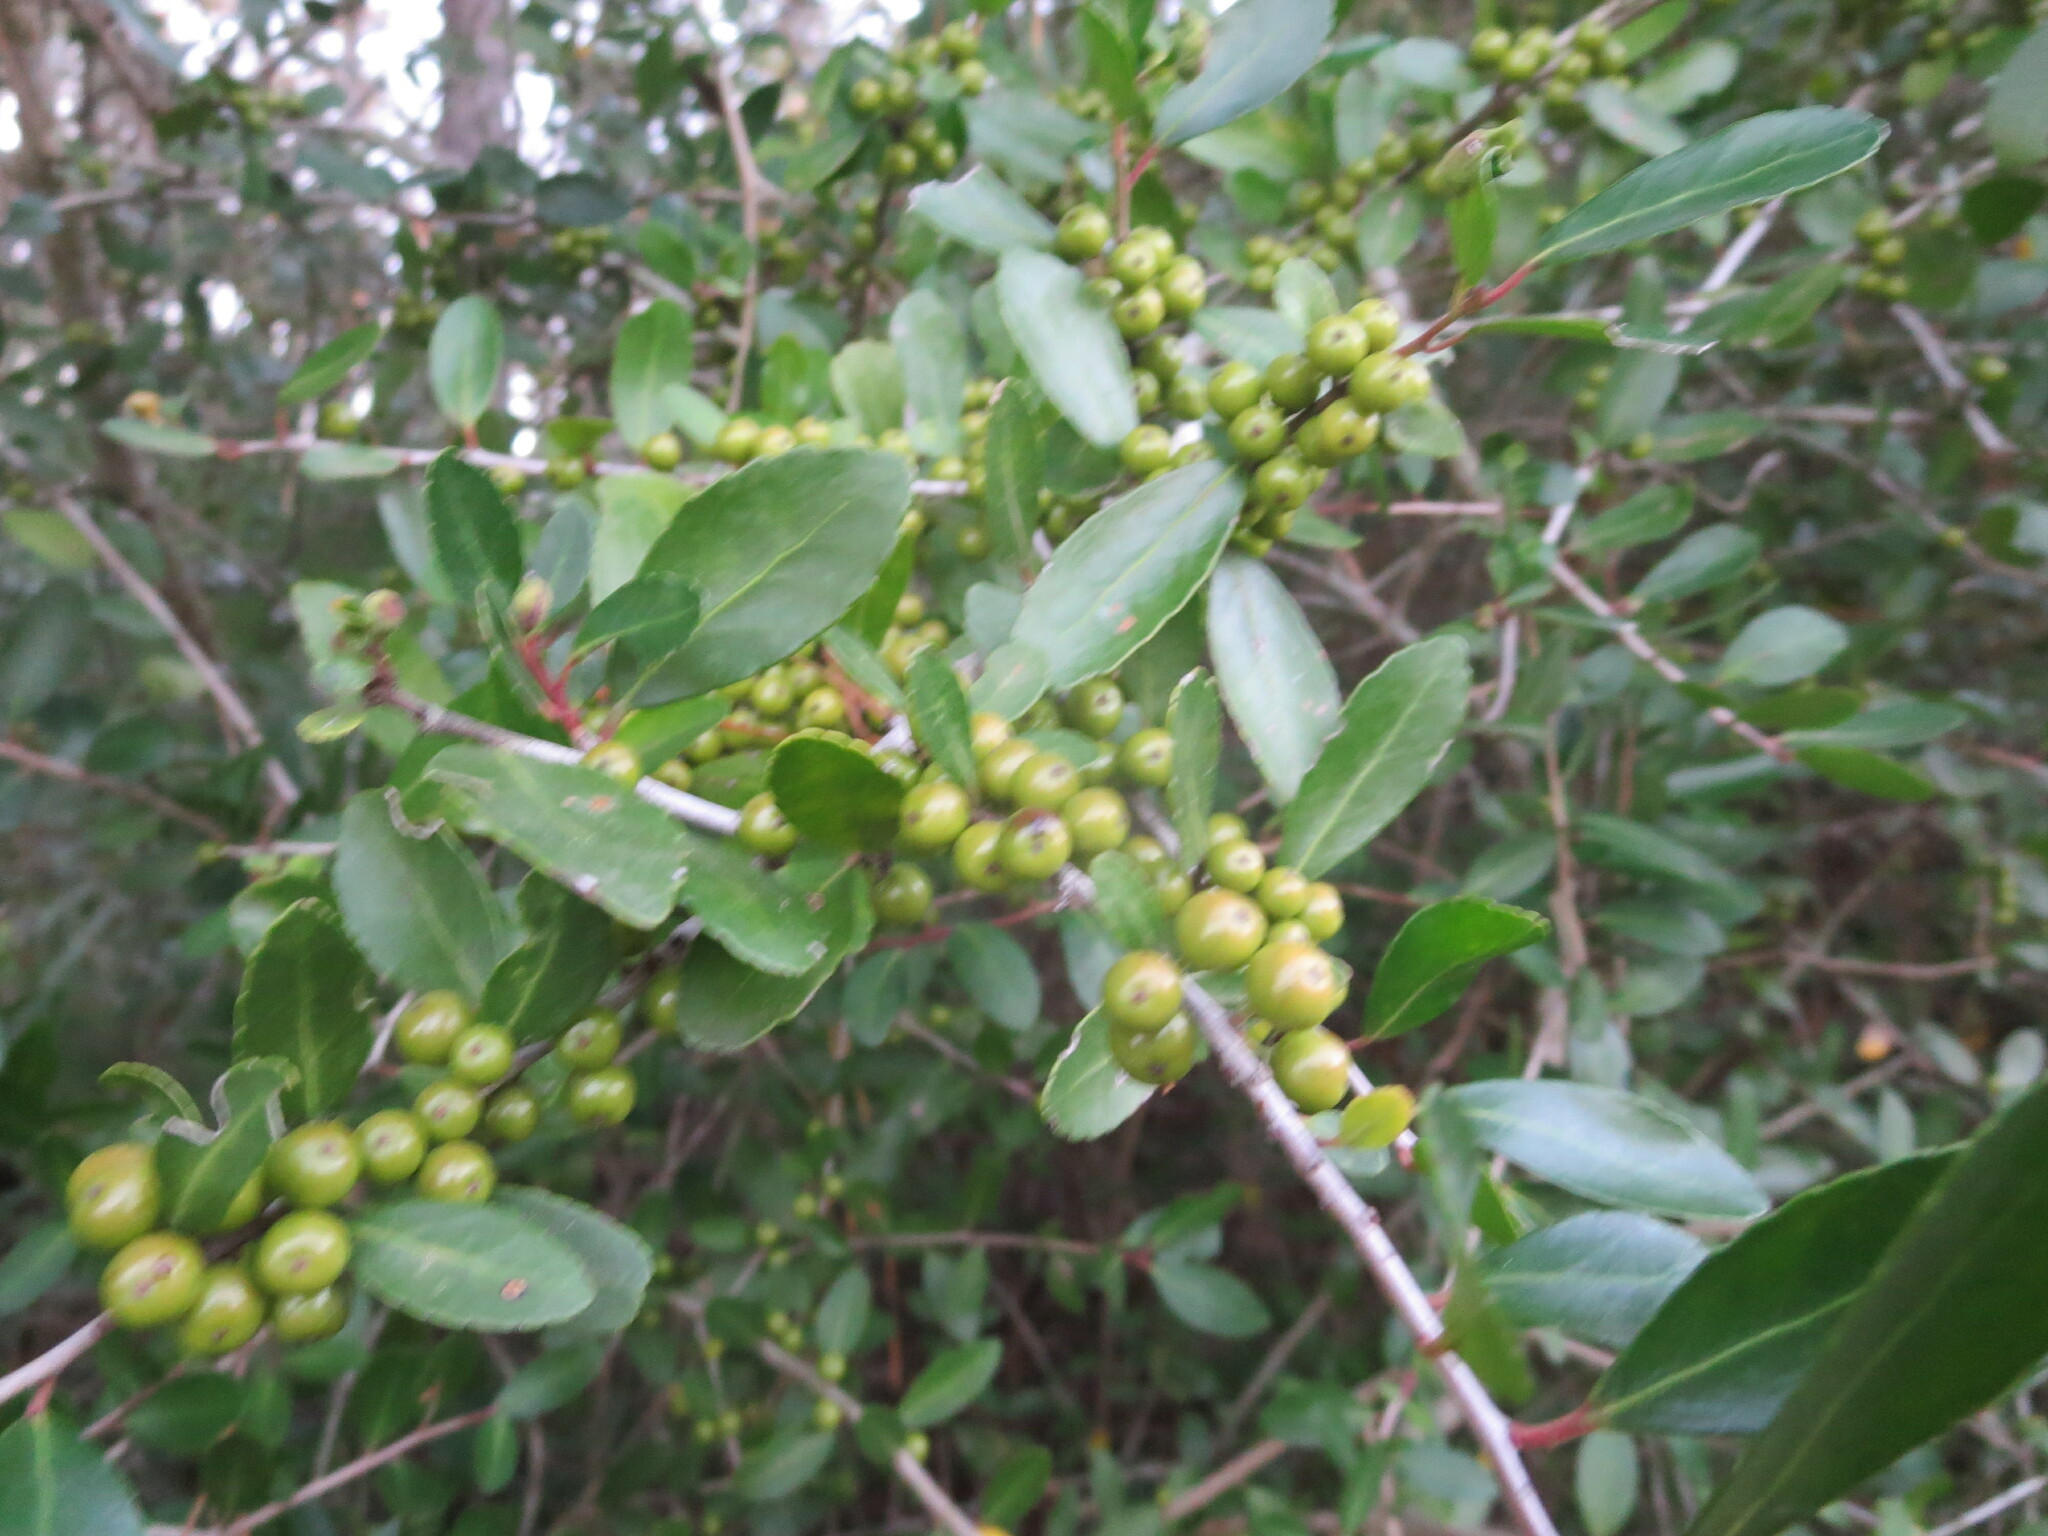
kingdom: Plantae
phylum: Tracheophyta
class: Magnoliopsida
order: Aquifoliales
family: Aquifoliaceae
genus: Ilex
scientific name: Ilex vomitoria
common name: Yaupon holly
